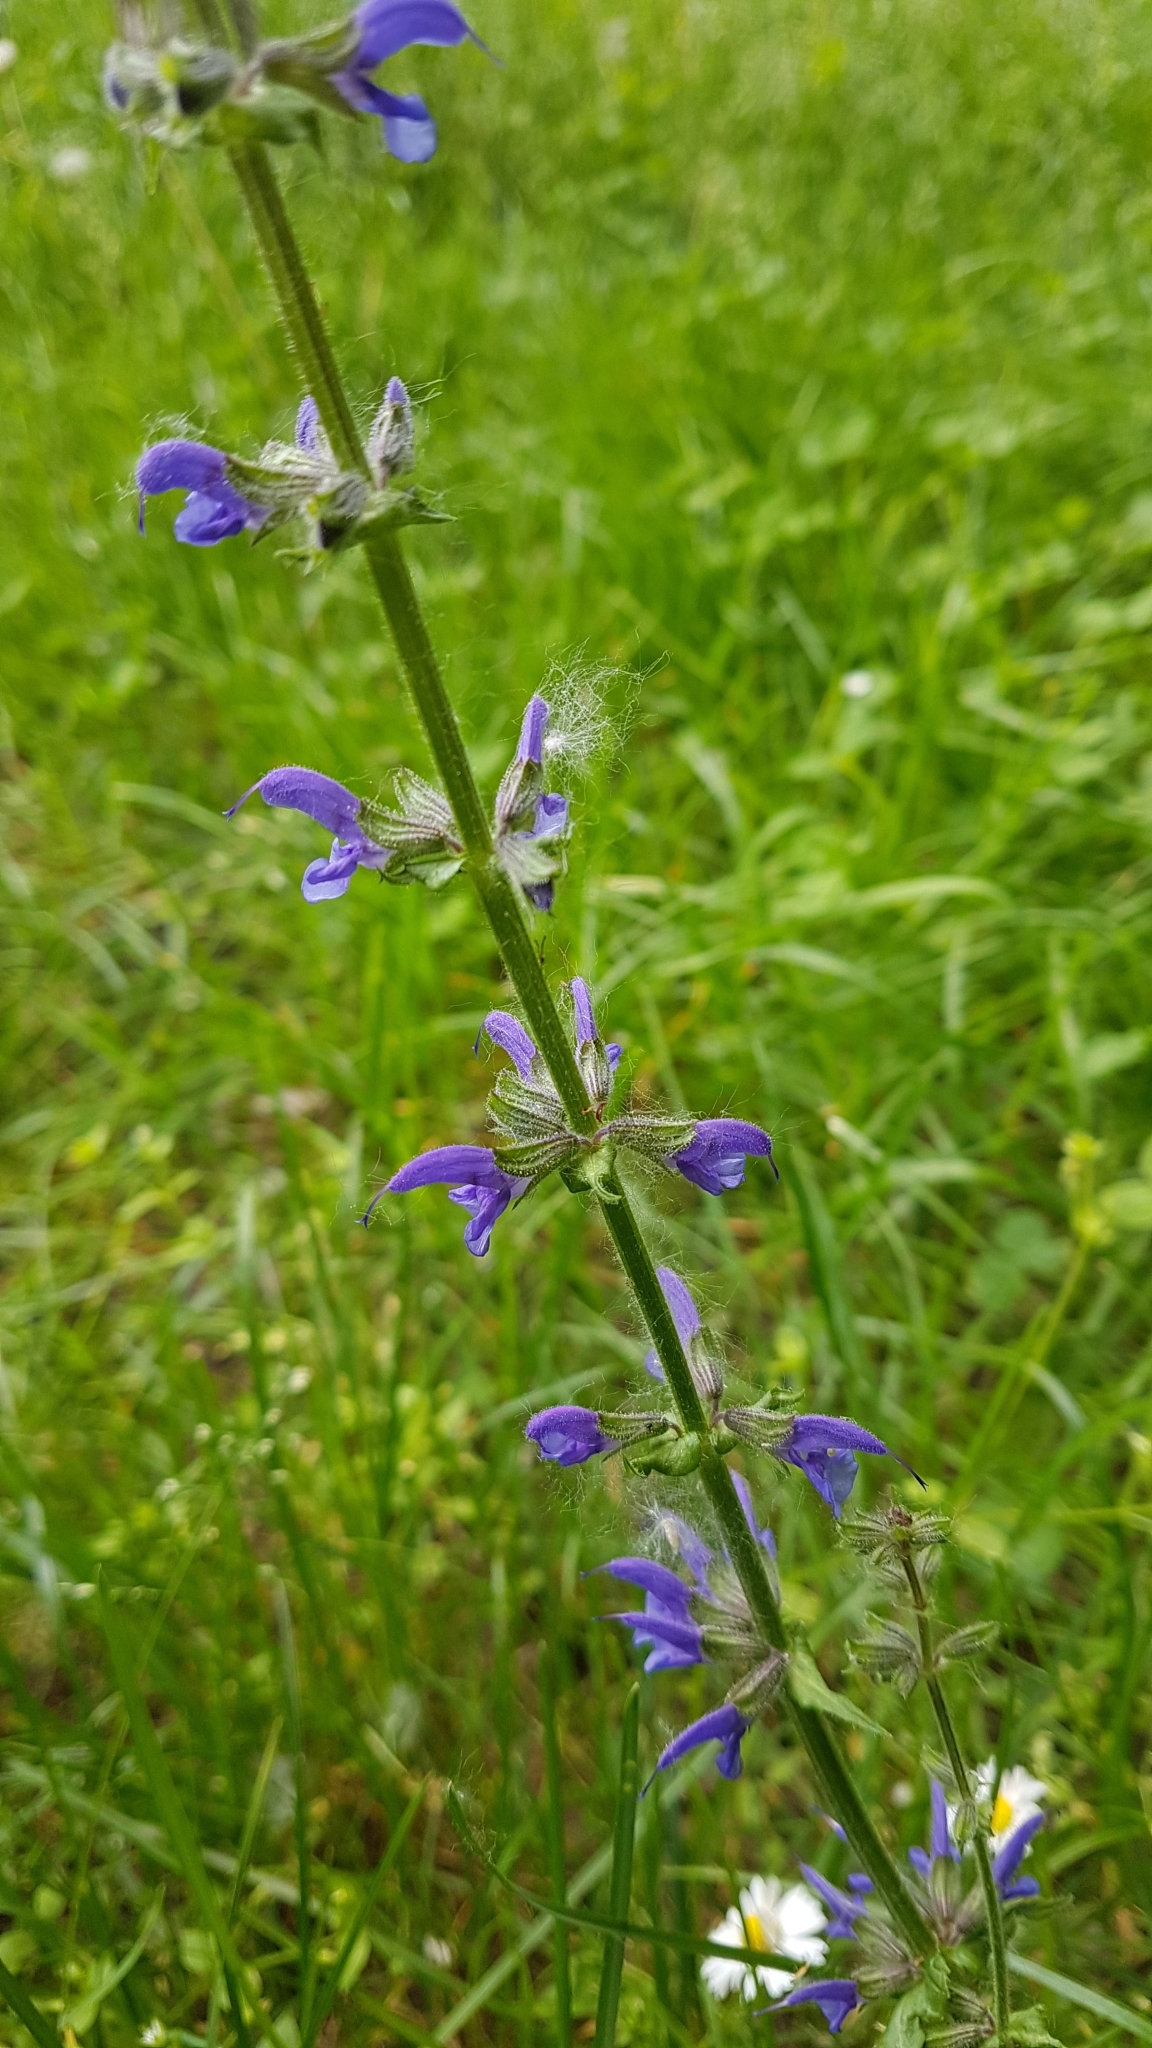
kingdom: Plantae
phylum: Tracheophyta
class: Magnoliopsida
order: Lamiales
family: Lamiaceae
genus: Salvia
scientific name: Salvia pratensis
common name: Meadow sage
